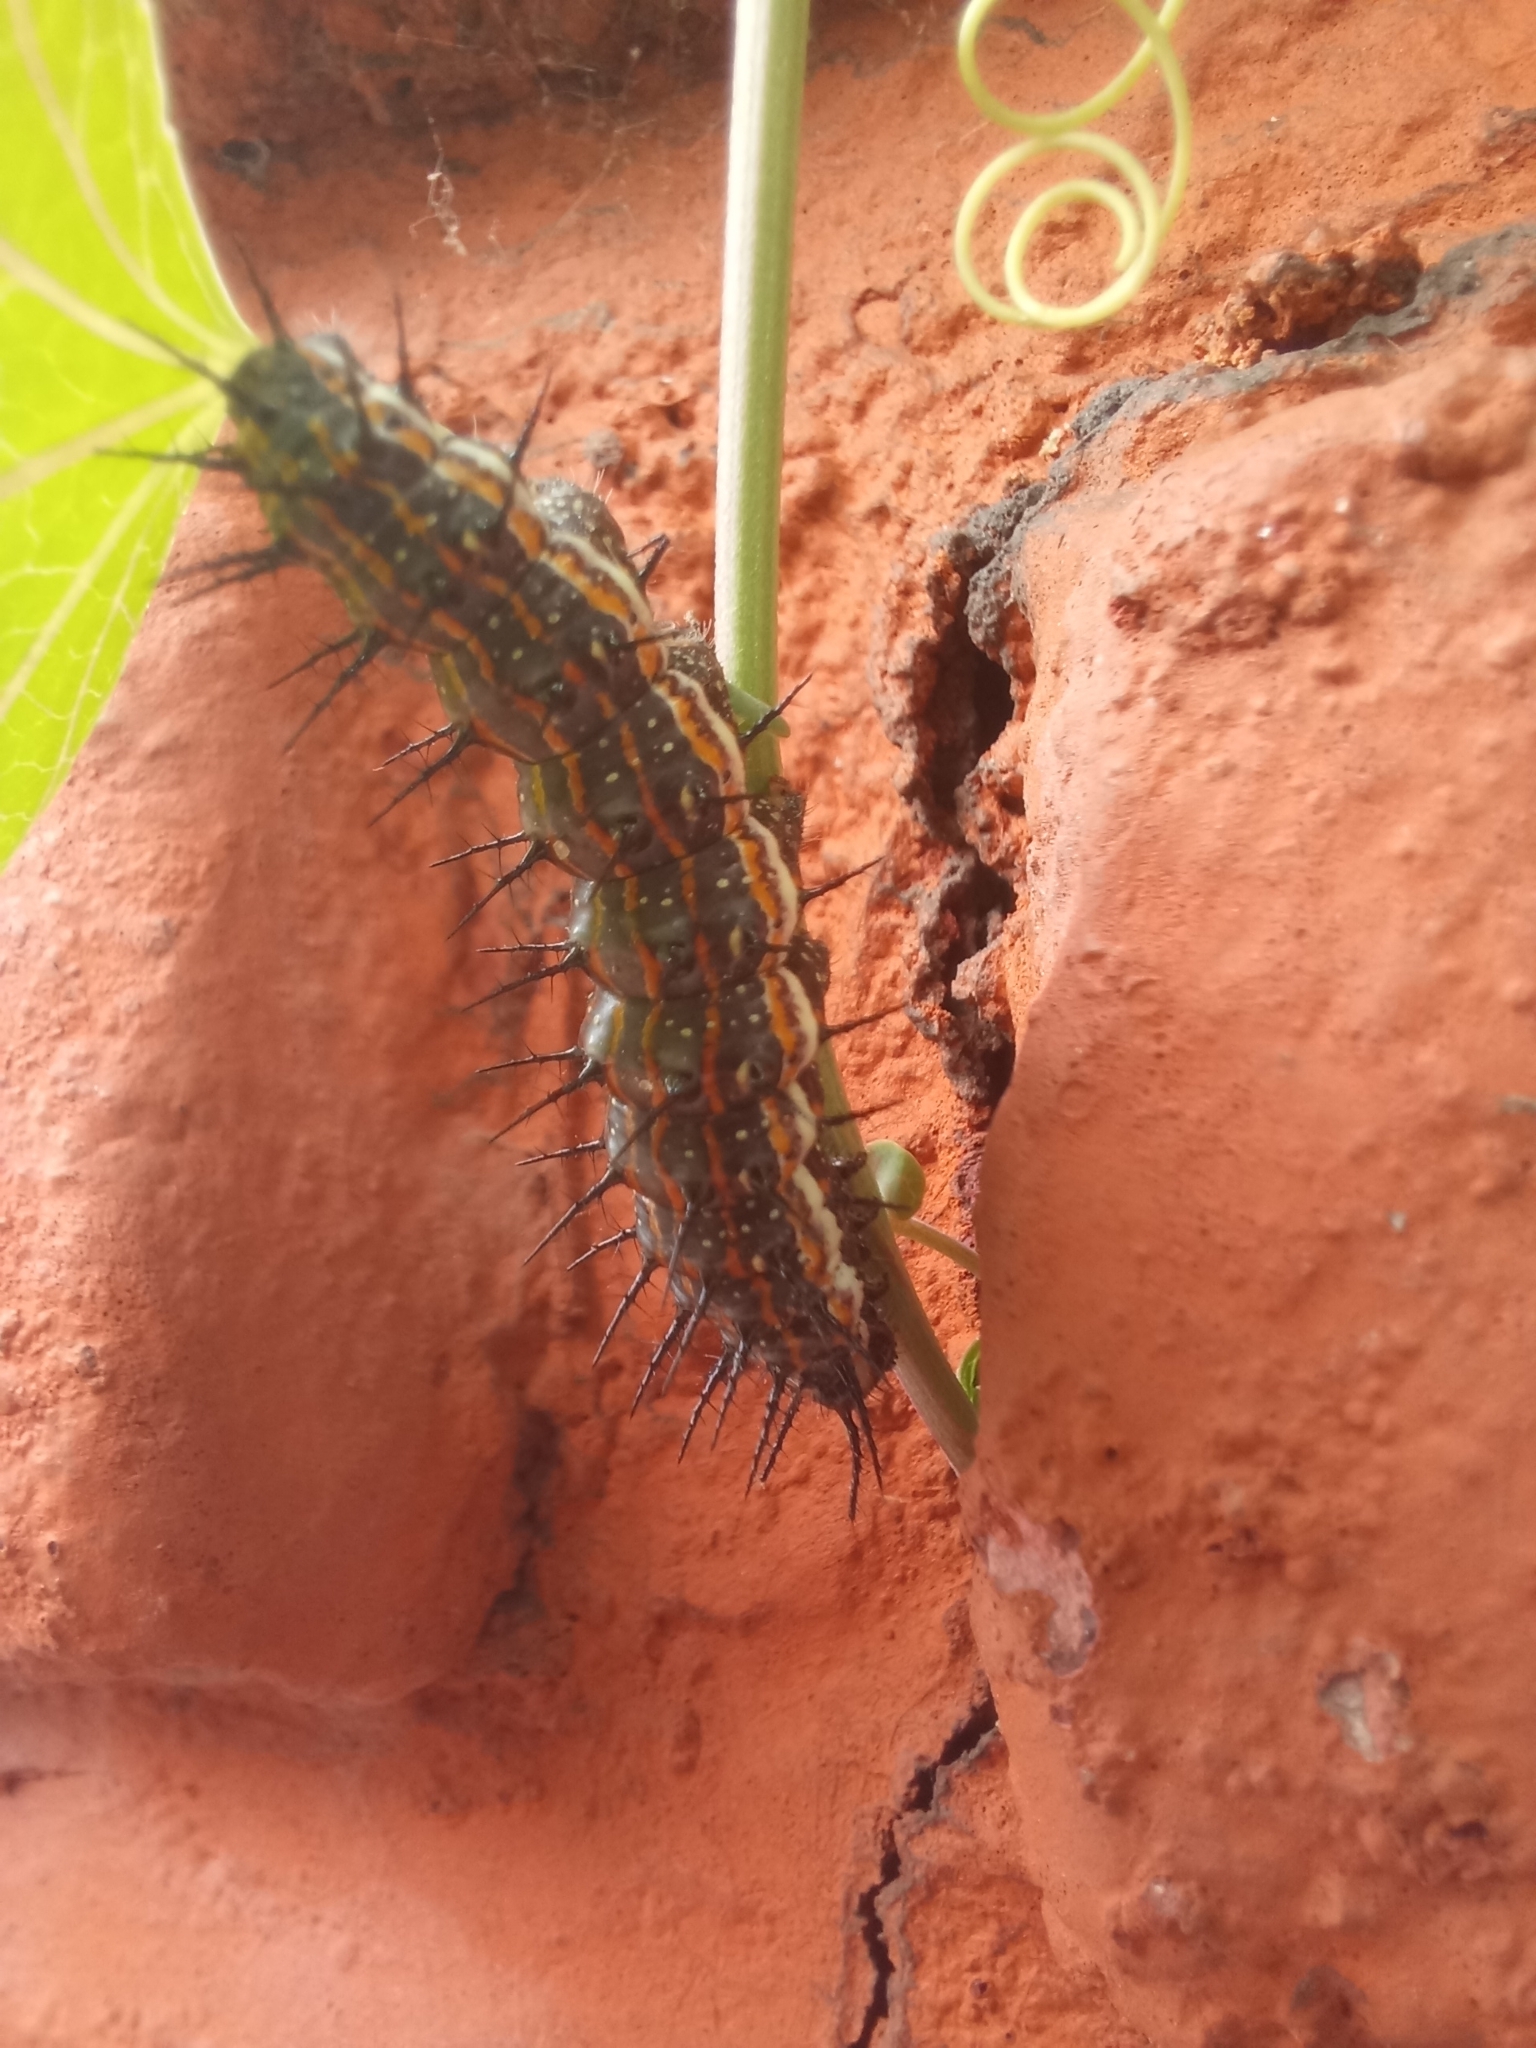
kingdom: Animalia
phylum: Arthropoda
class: Insecta
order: Lepidoptera
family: Nymphalidae
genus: Dione
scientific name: Dione vanillae
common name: Gulf fritillary
